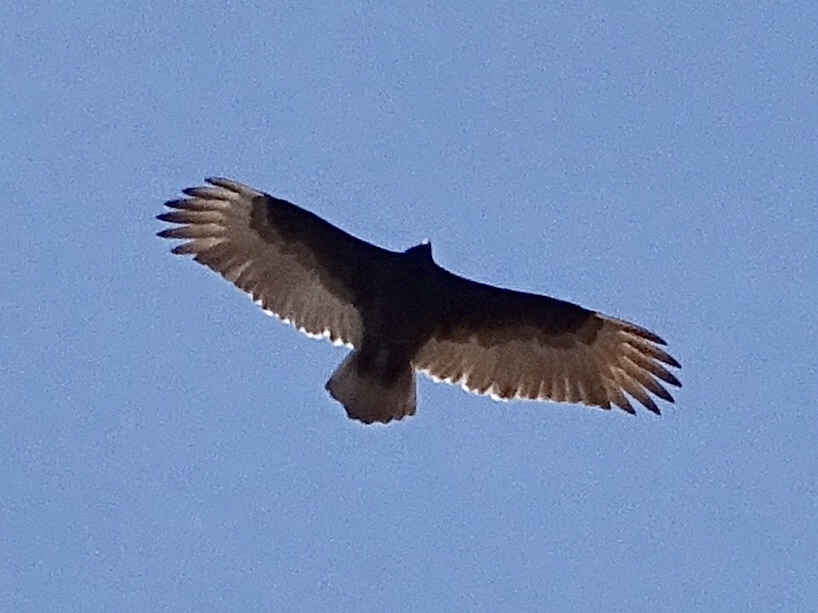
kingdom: Animalia
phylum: Chordata
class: Aves
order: Accipitriformes
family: Cathartidae
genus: Cathartes
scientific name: Cathartes aura
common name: Turkey vulture
